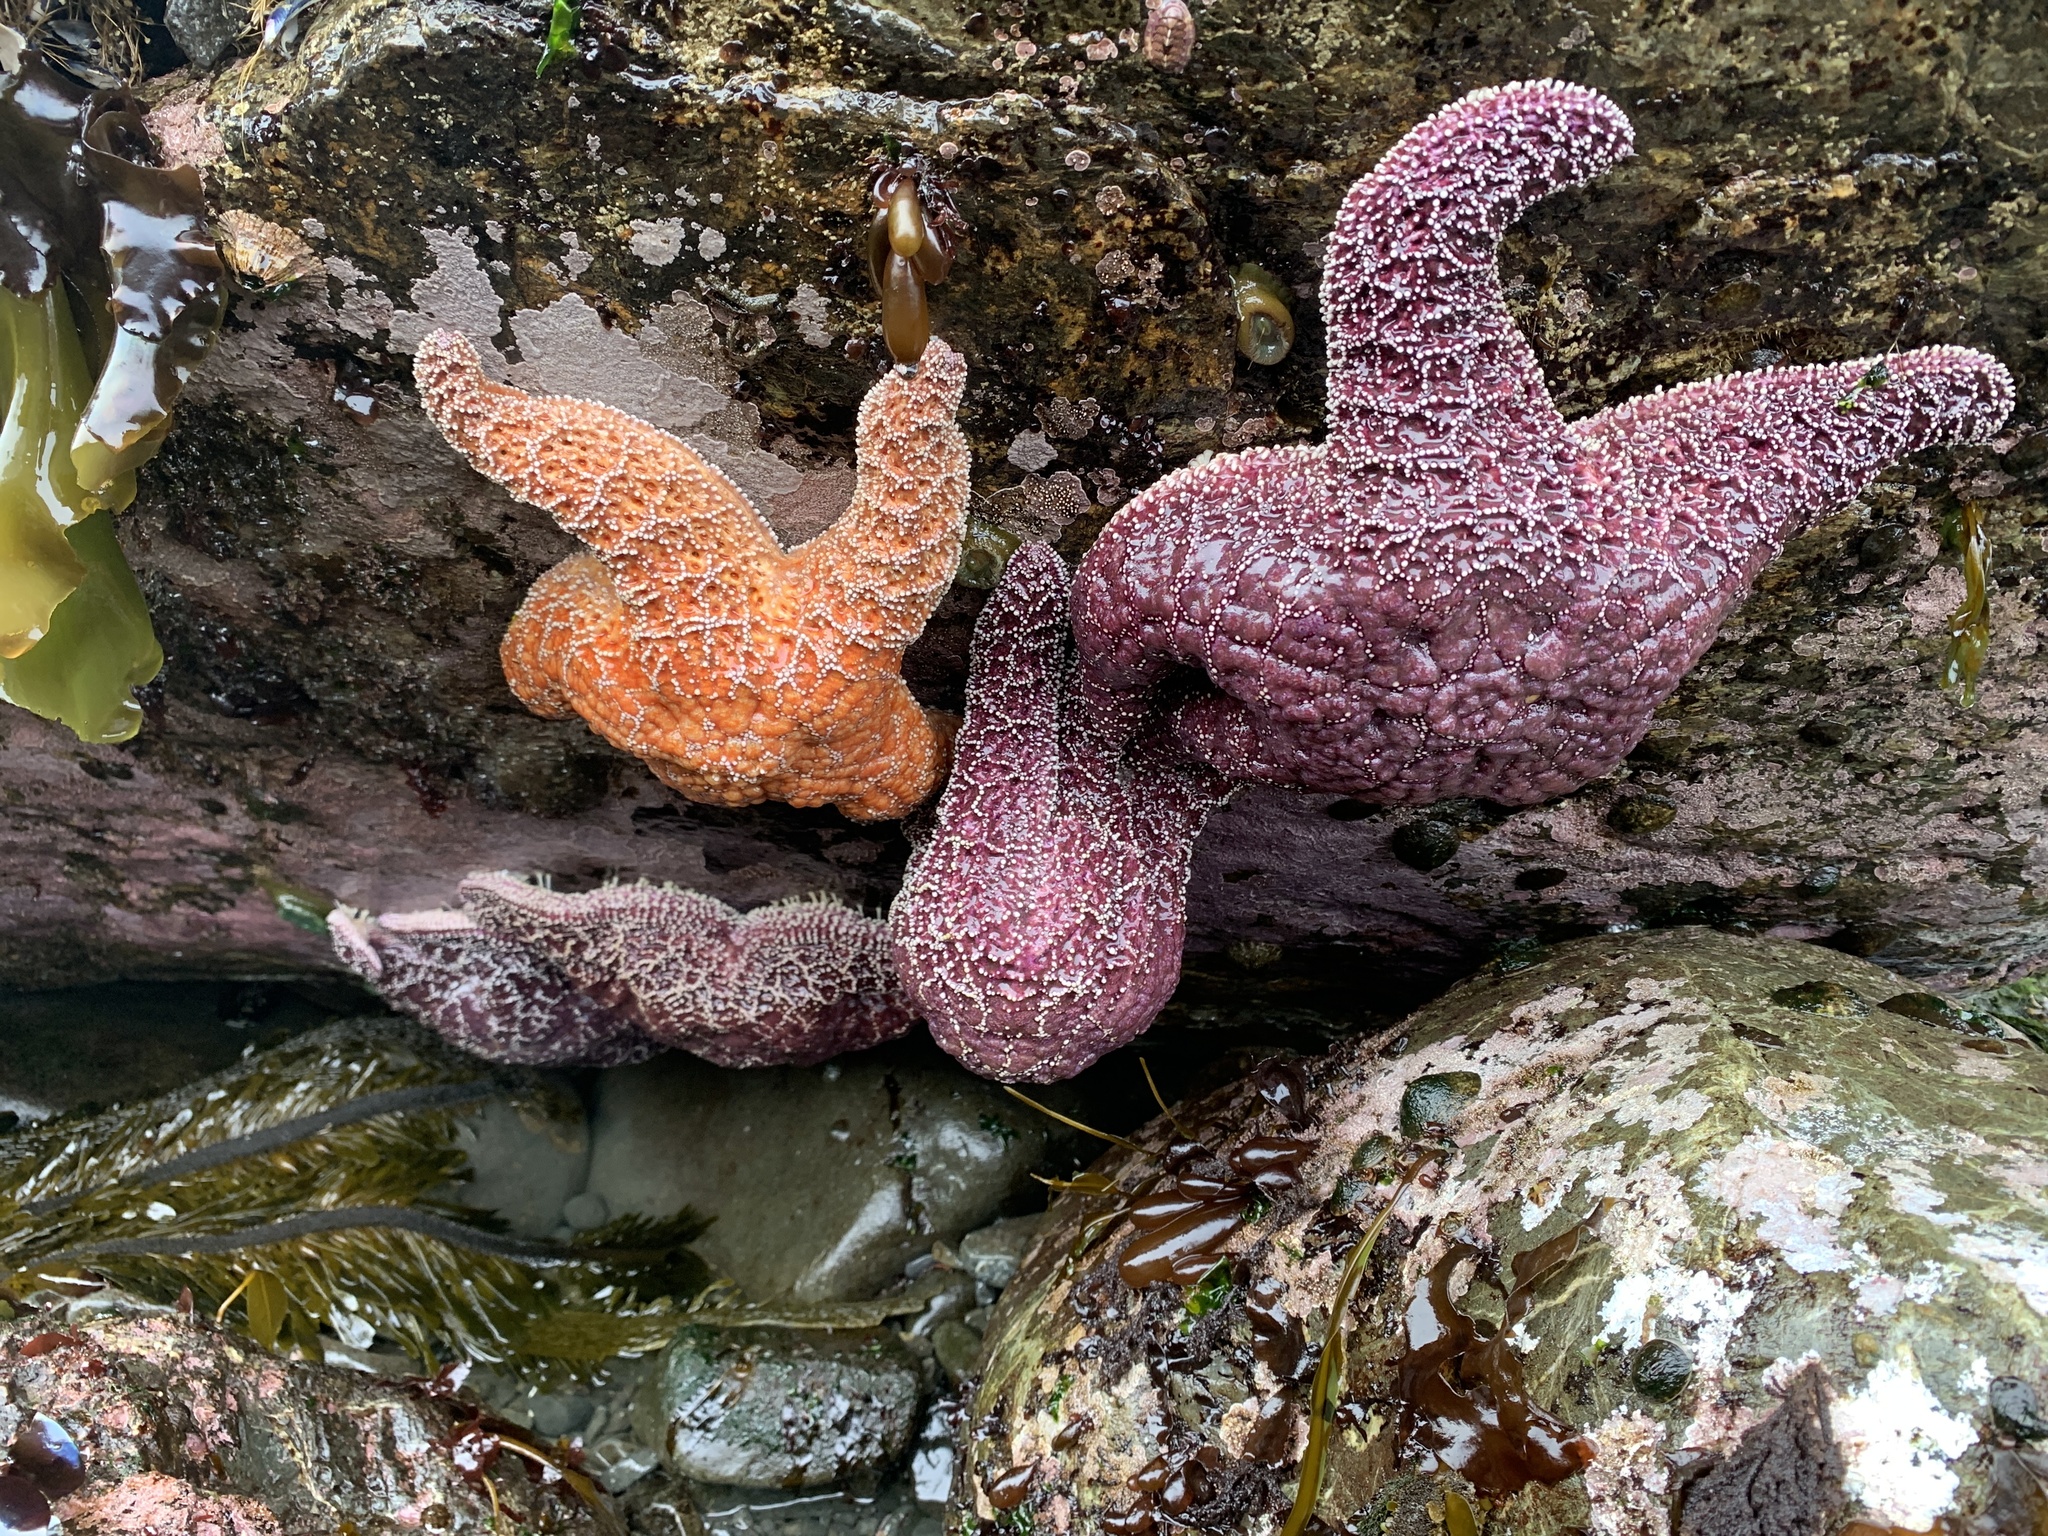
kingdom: Animalia
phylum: Echinodermata
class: Asteroidea
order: Forcipulatida
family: Asteriidae
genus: Pisaster
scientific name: Pisaster ochraceus
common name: Ochre stars
